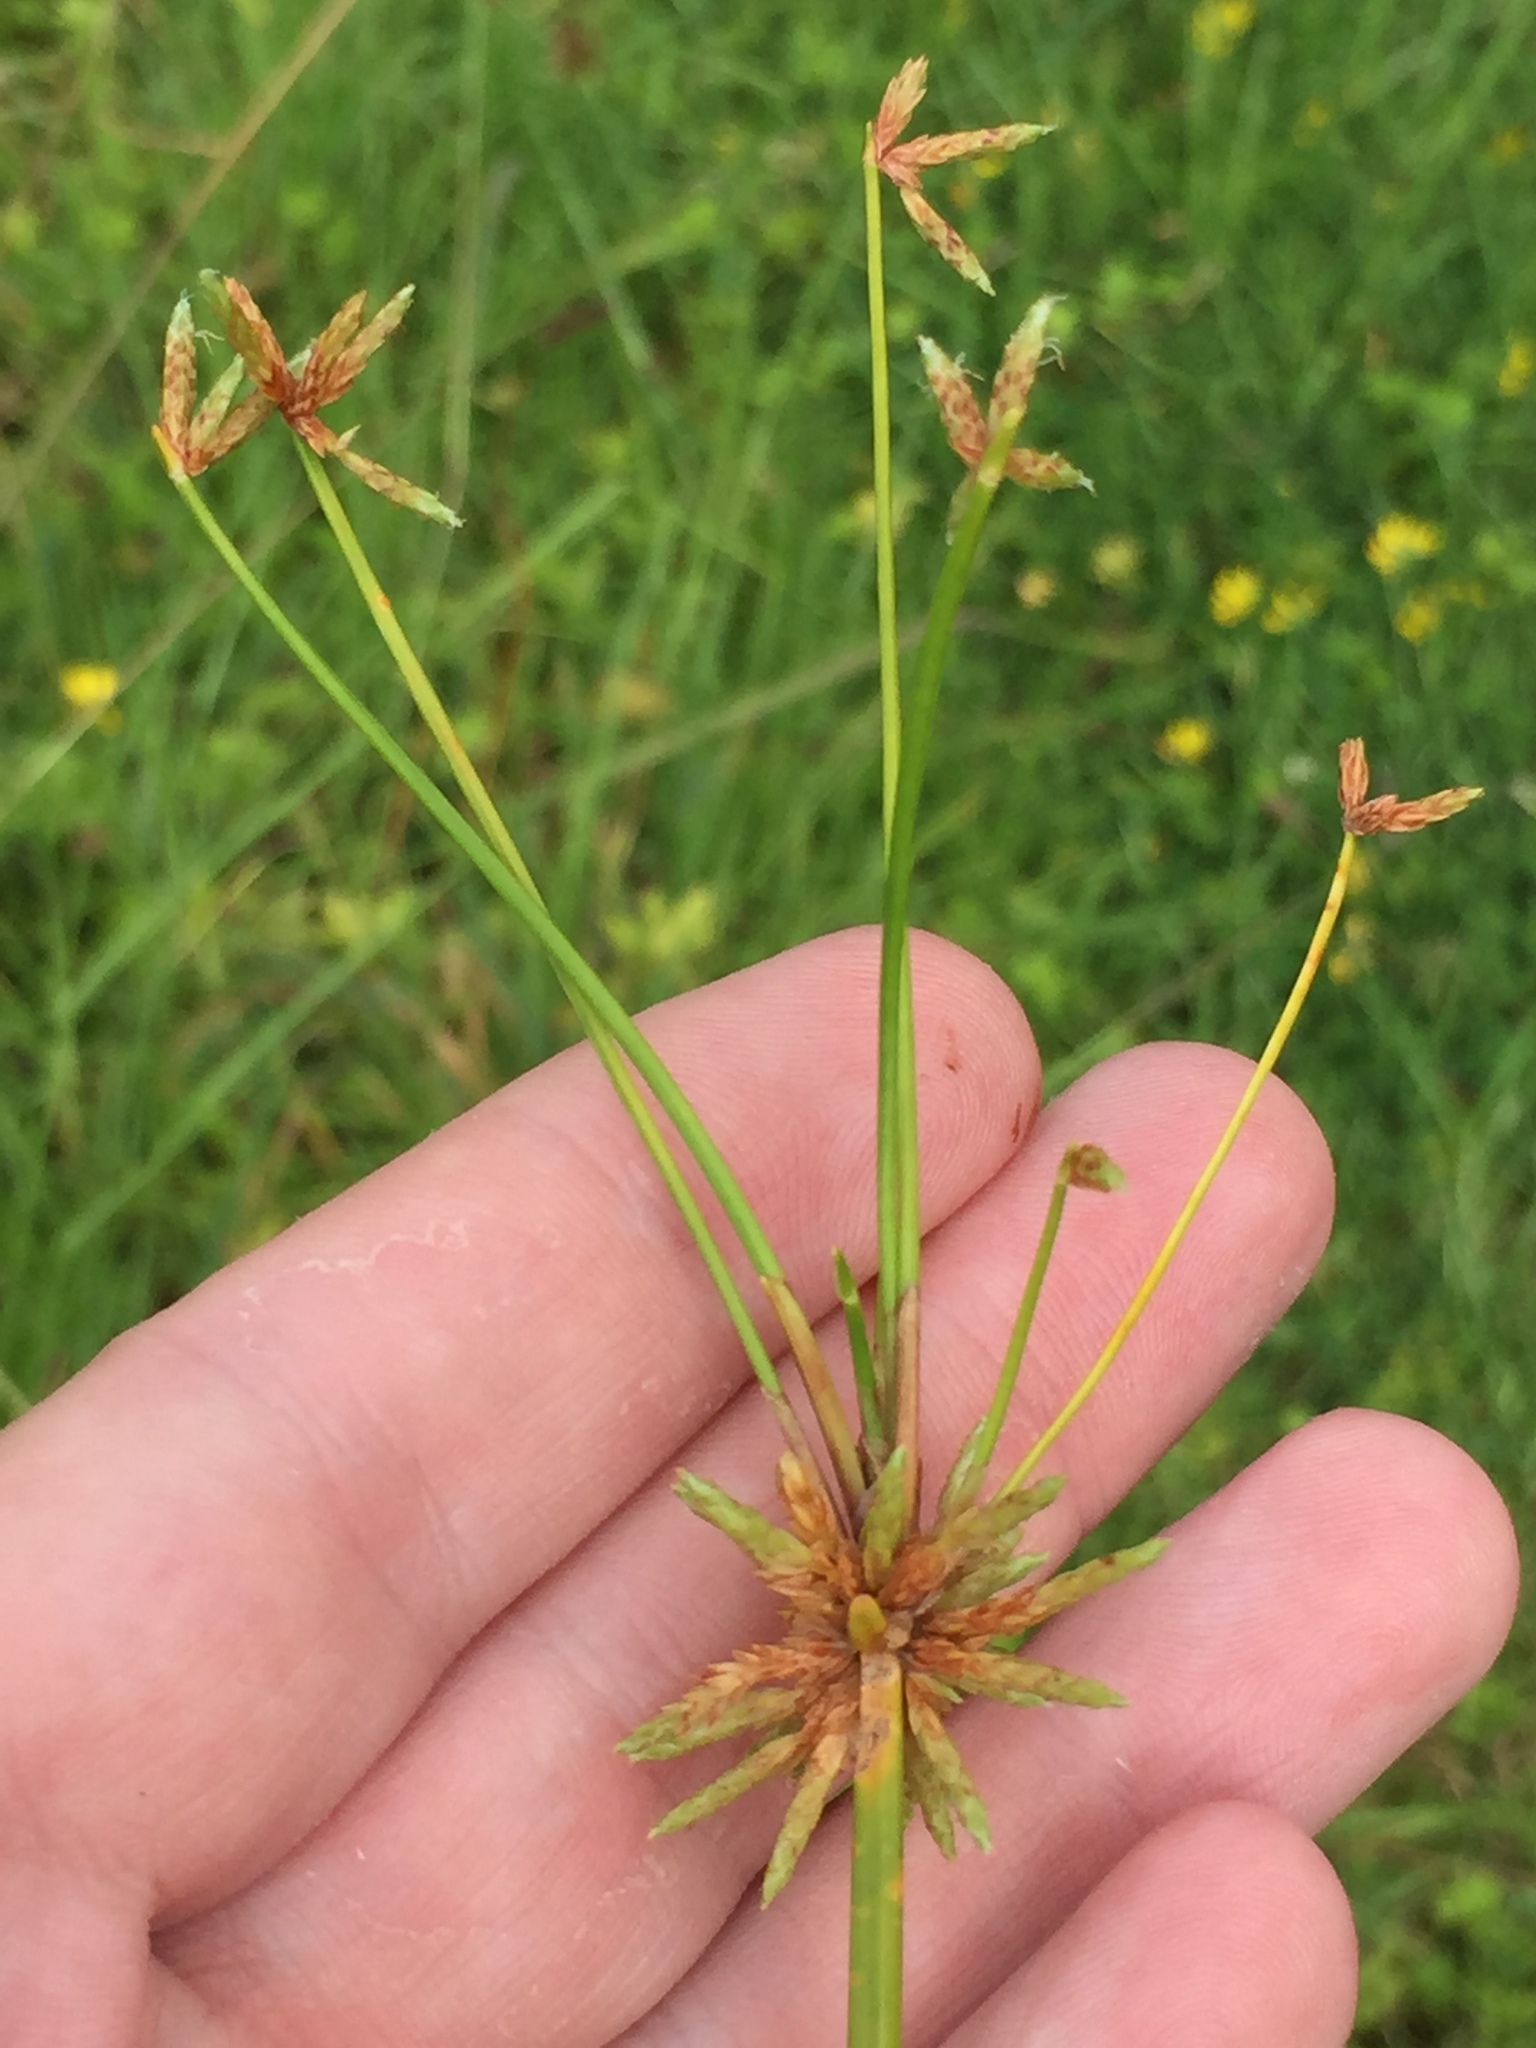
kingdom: Plantae
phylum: Tracheophyta
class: Liliopsida
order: Poales
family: Cyperaceae
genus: Isolepis
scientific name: Isolepis prolifera
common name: Proliferating bulrush
